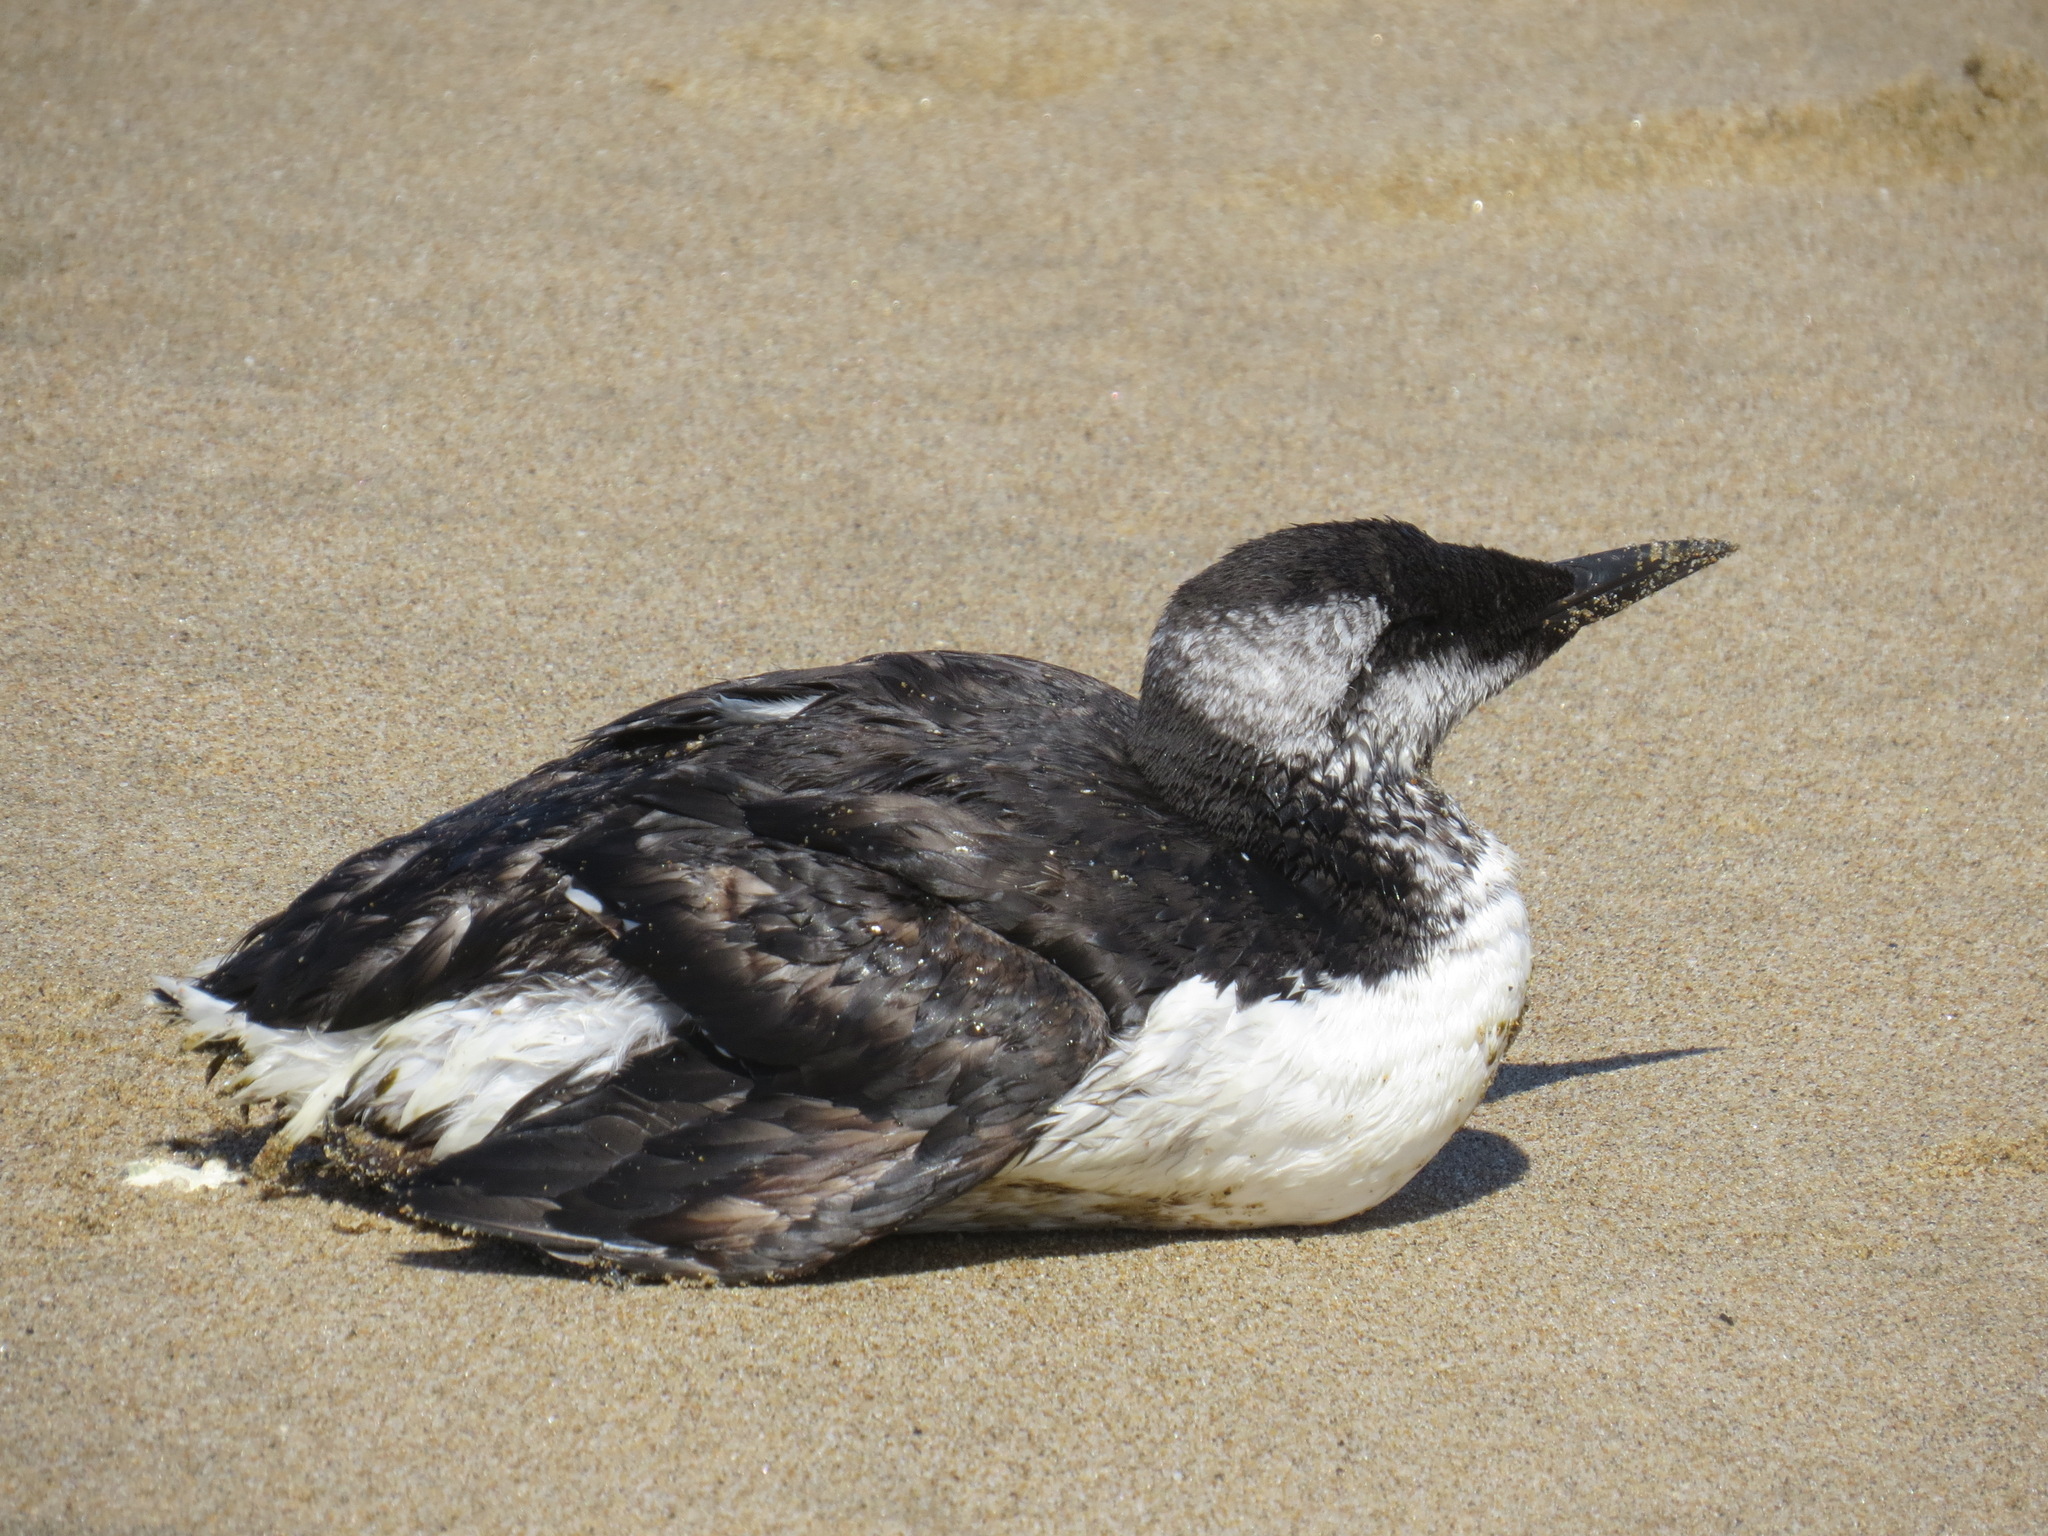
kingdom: Animalia
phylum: Chordata
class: Aves
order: Charadriiformes
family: Alcidae
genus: Uria
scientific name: Uria aalge
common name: Common murre
